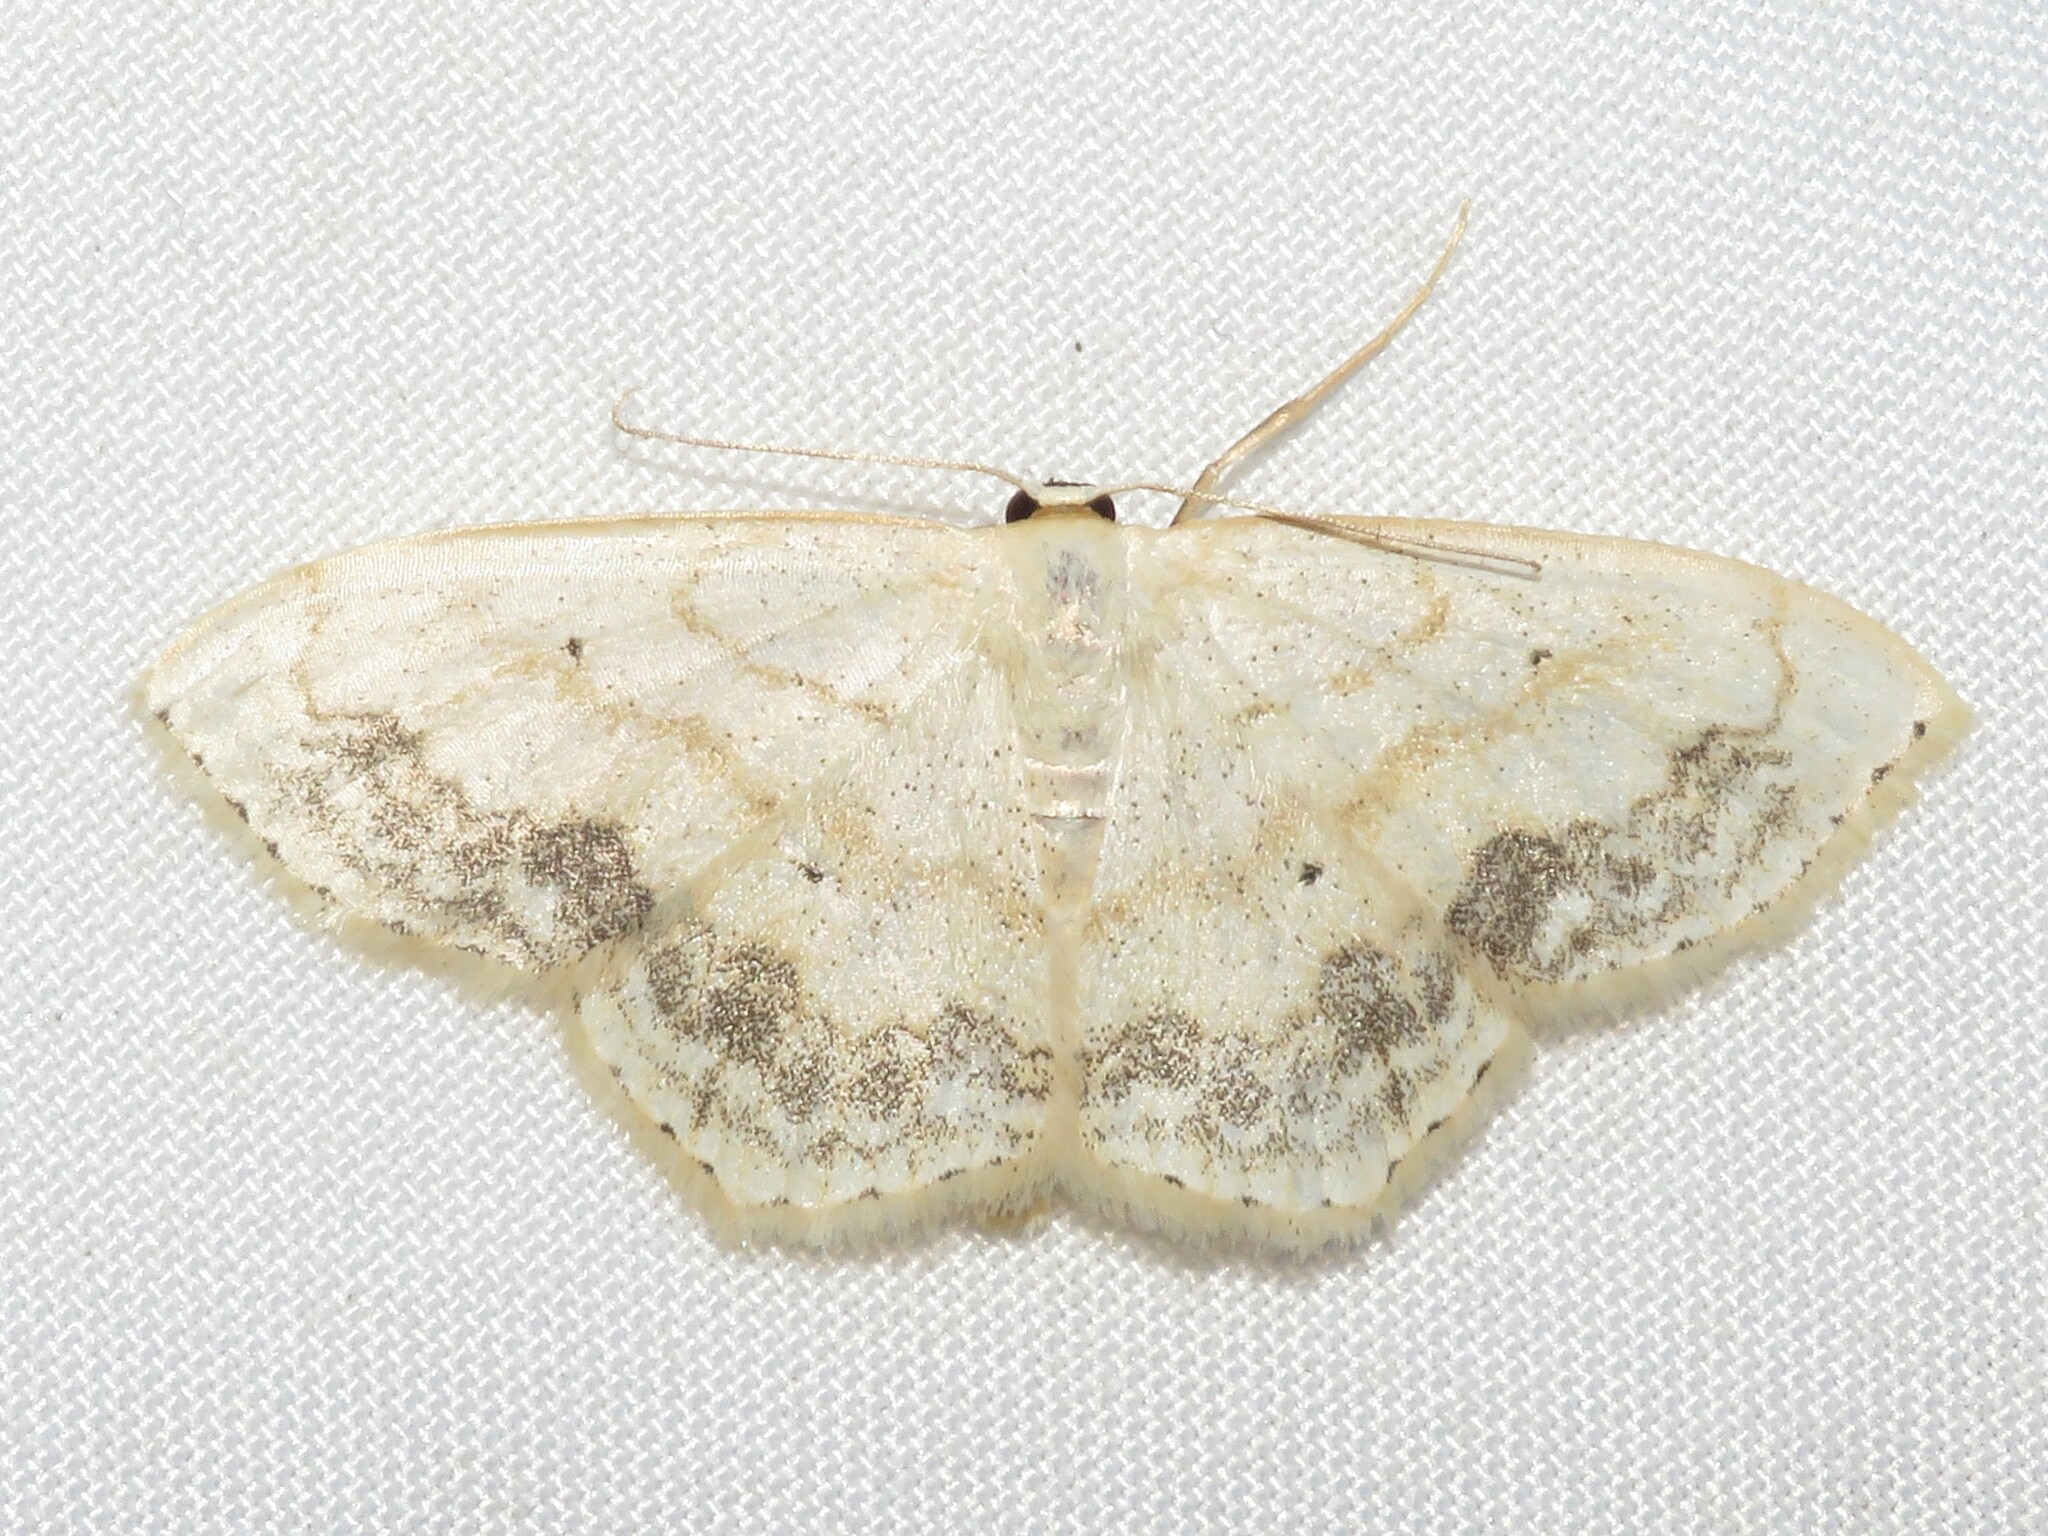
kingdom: Animalia
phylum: Arthropoda
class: Insecta
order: Lepidoptera
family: Geometridae
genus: Scopula
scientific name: Scopula limboundata
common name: Large lace border
